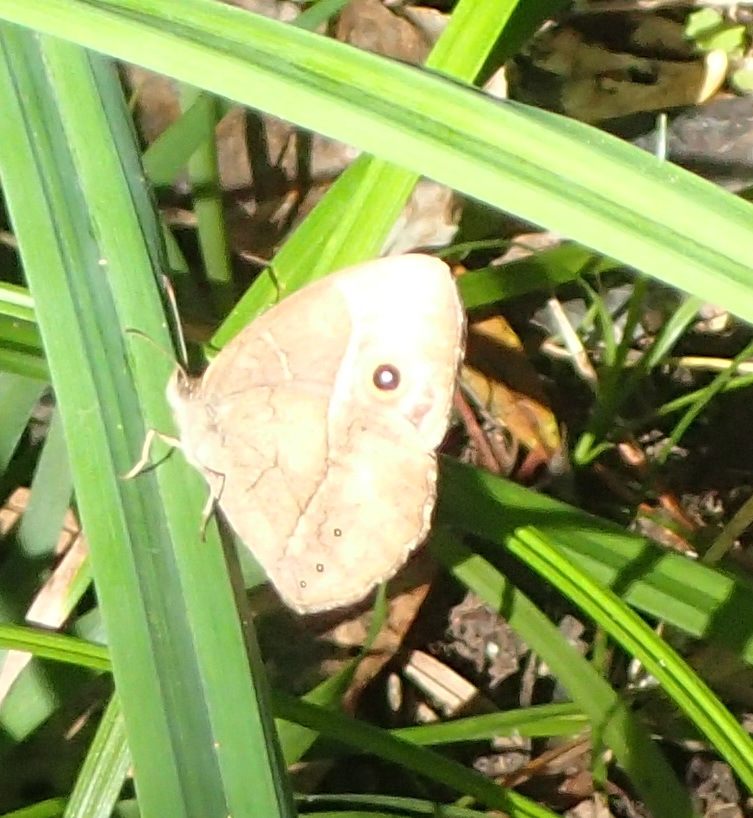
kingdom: Animalia
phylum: Arthropoda
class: Insecta
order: Lepidoptera
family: Nymphalidae
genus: Mycalesis
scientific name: Mycalesis rhacotis
